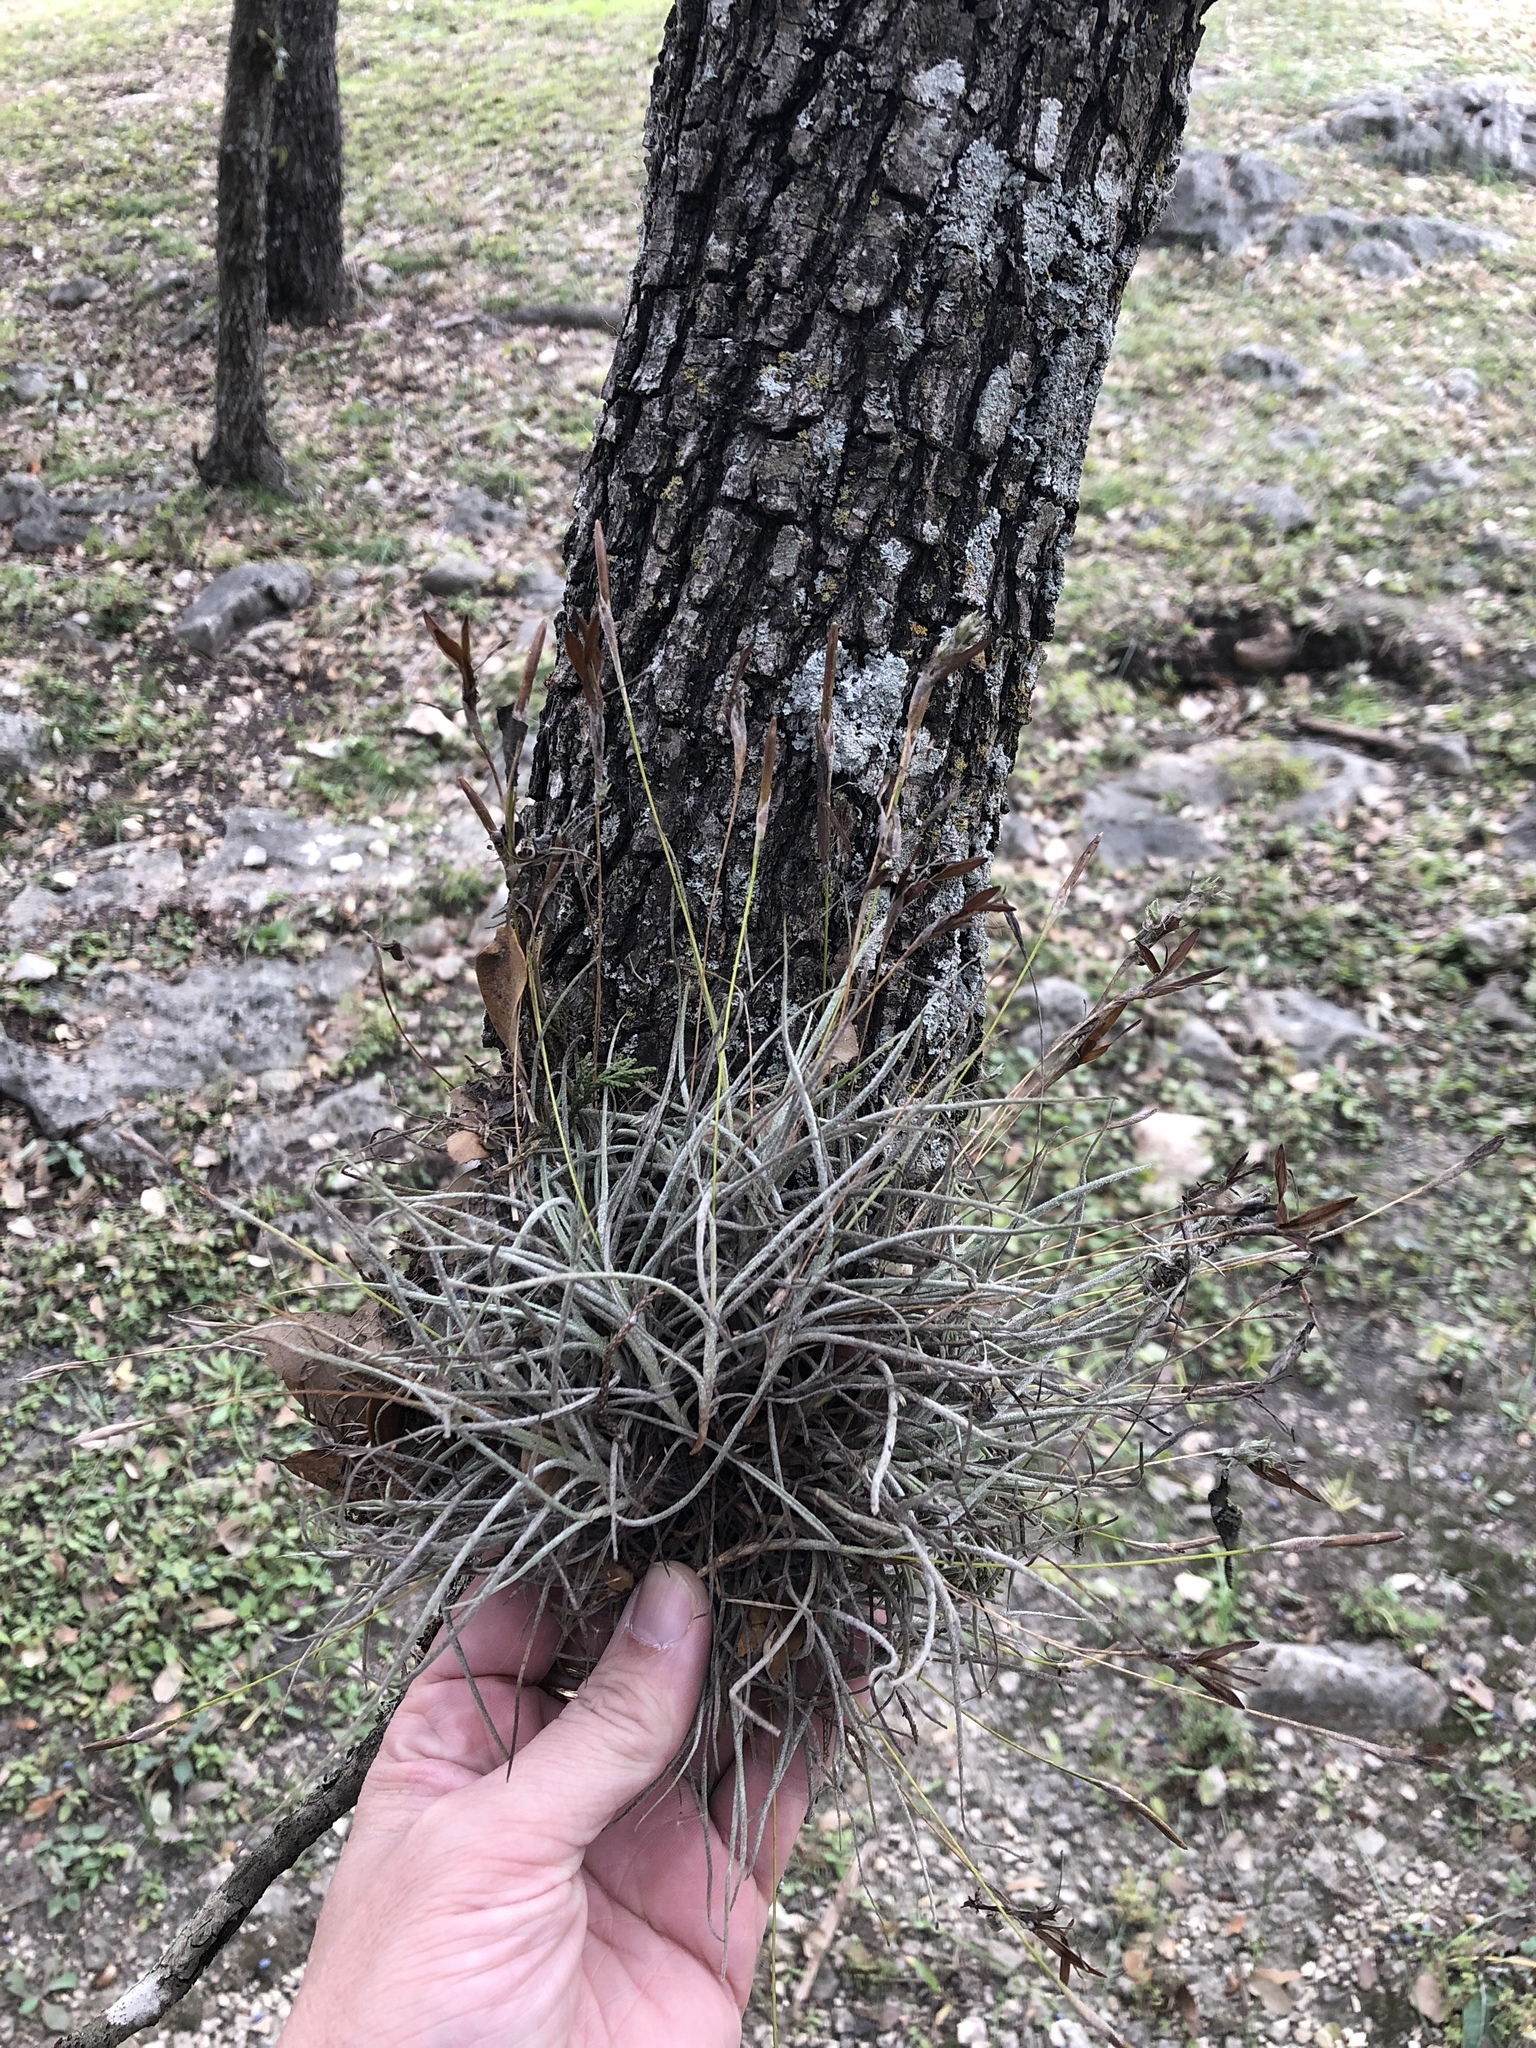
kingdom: Plantae
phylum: Tracheophyta
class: Liliopsida
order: Poales
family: Bromeliaceae
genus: Tillandsia
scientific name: Tillandsia recurvata
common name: Small ballmoss
